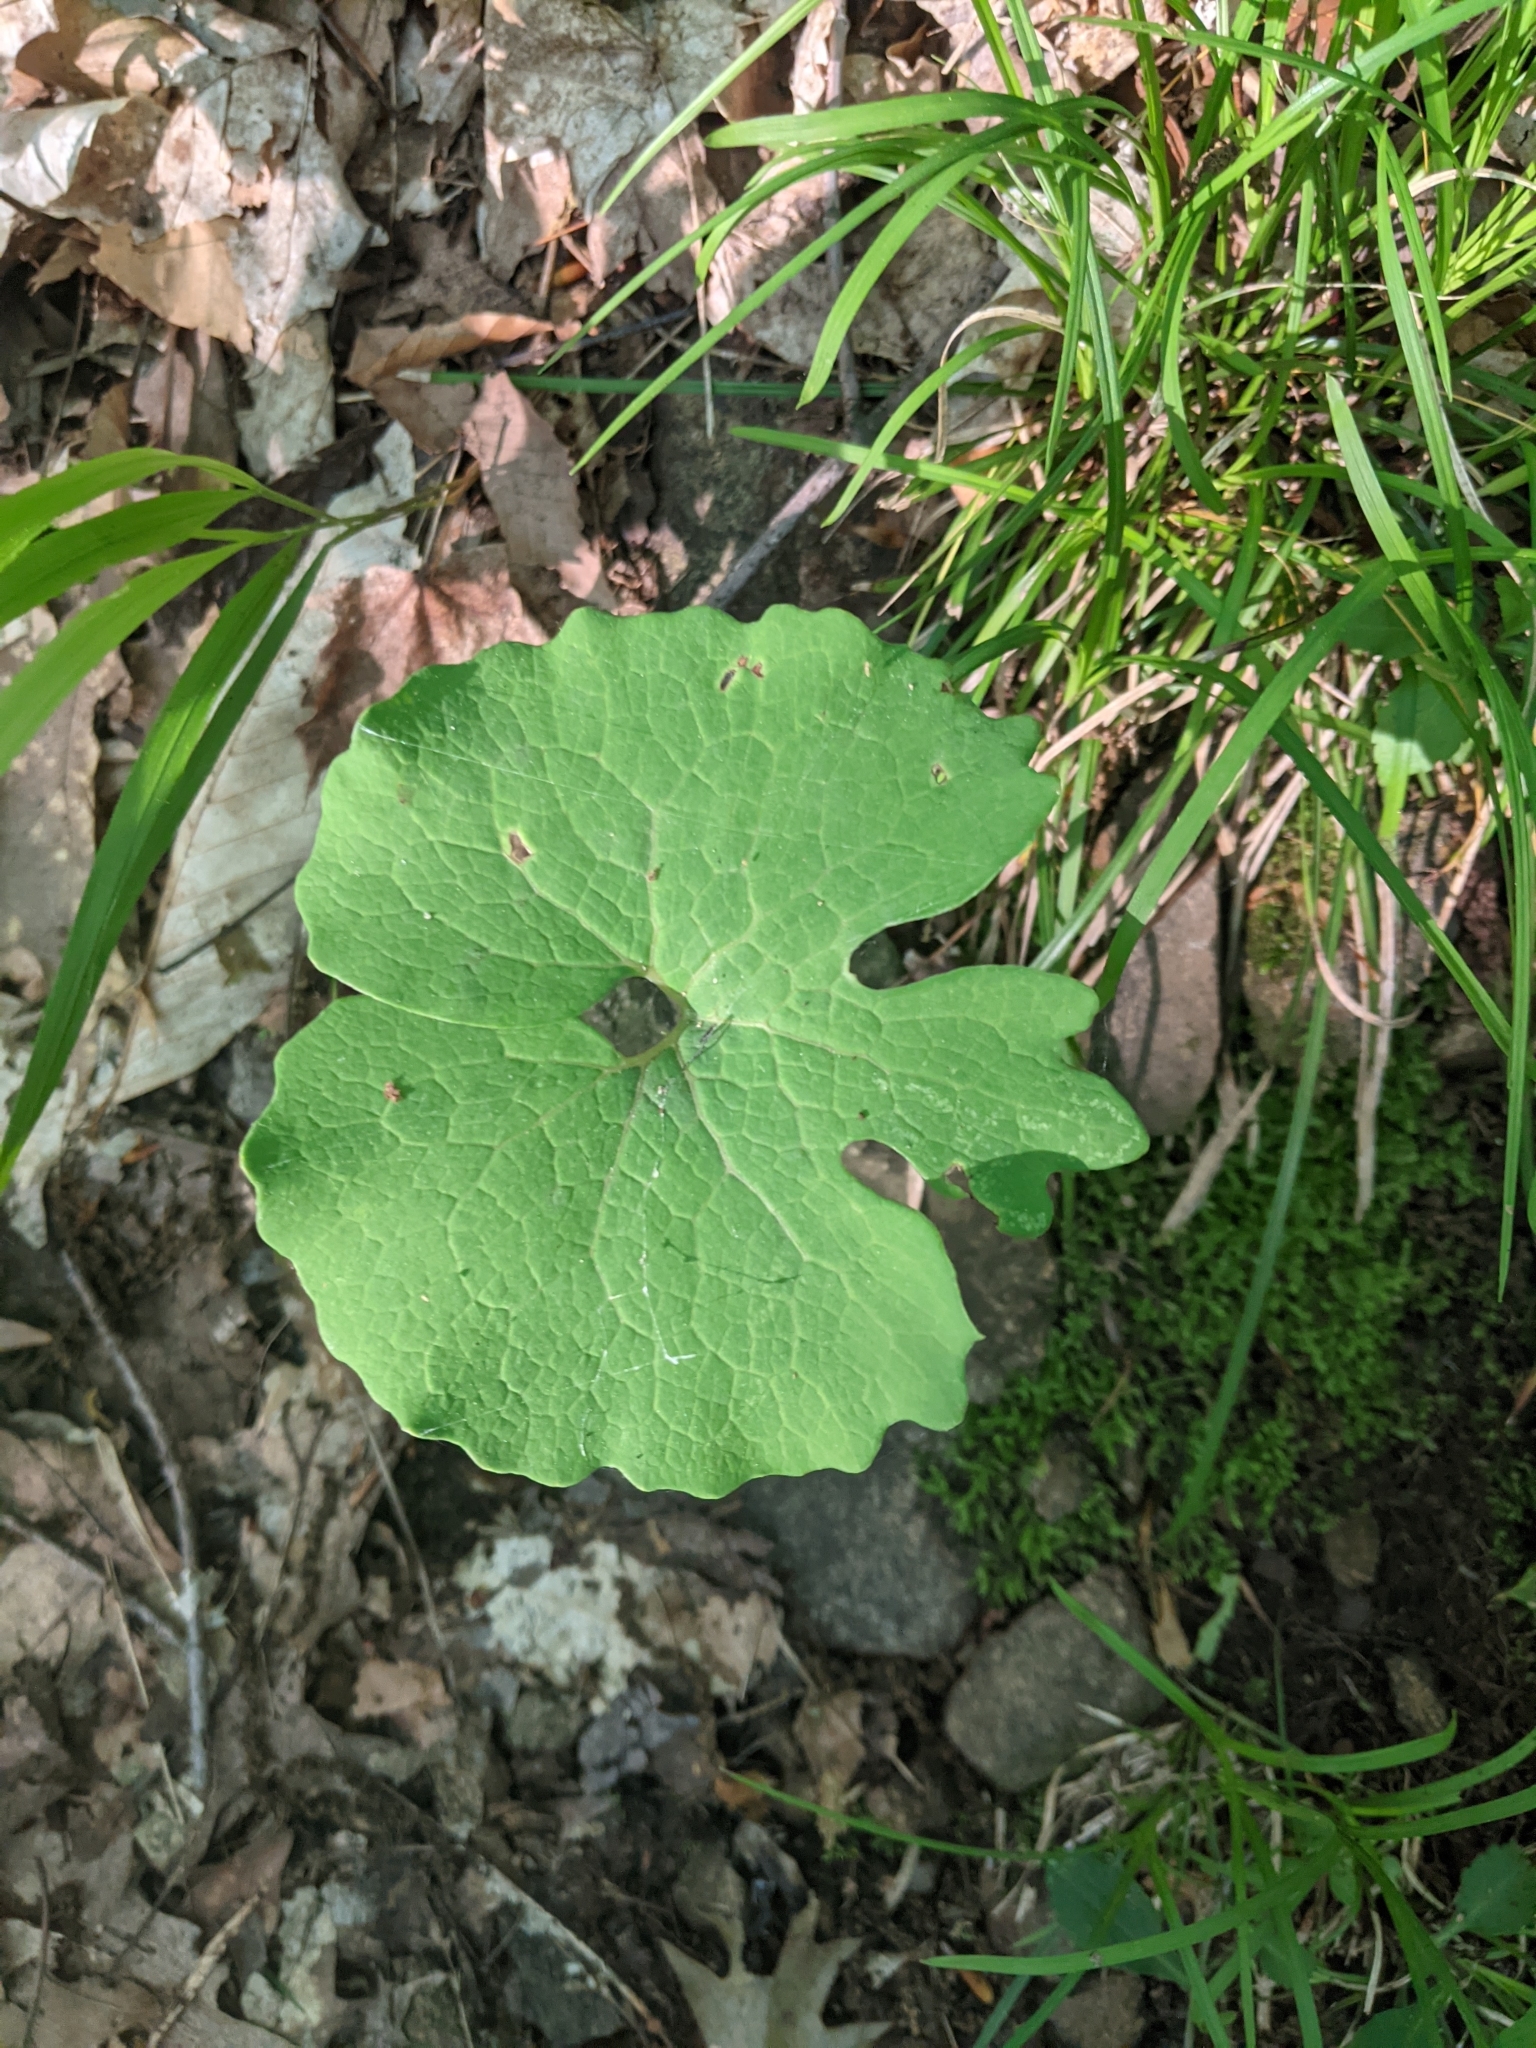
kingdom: Plantae
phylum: Tracheophyta
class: Magnoliopsida
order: Ranunculales
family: Papaveraceae
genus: Sanguinaria
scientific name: Sanguinaria canadensis
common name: Bloodroot
